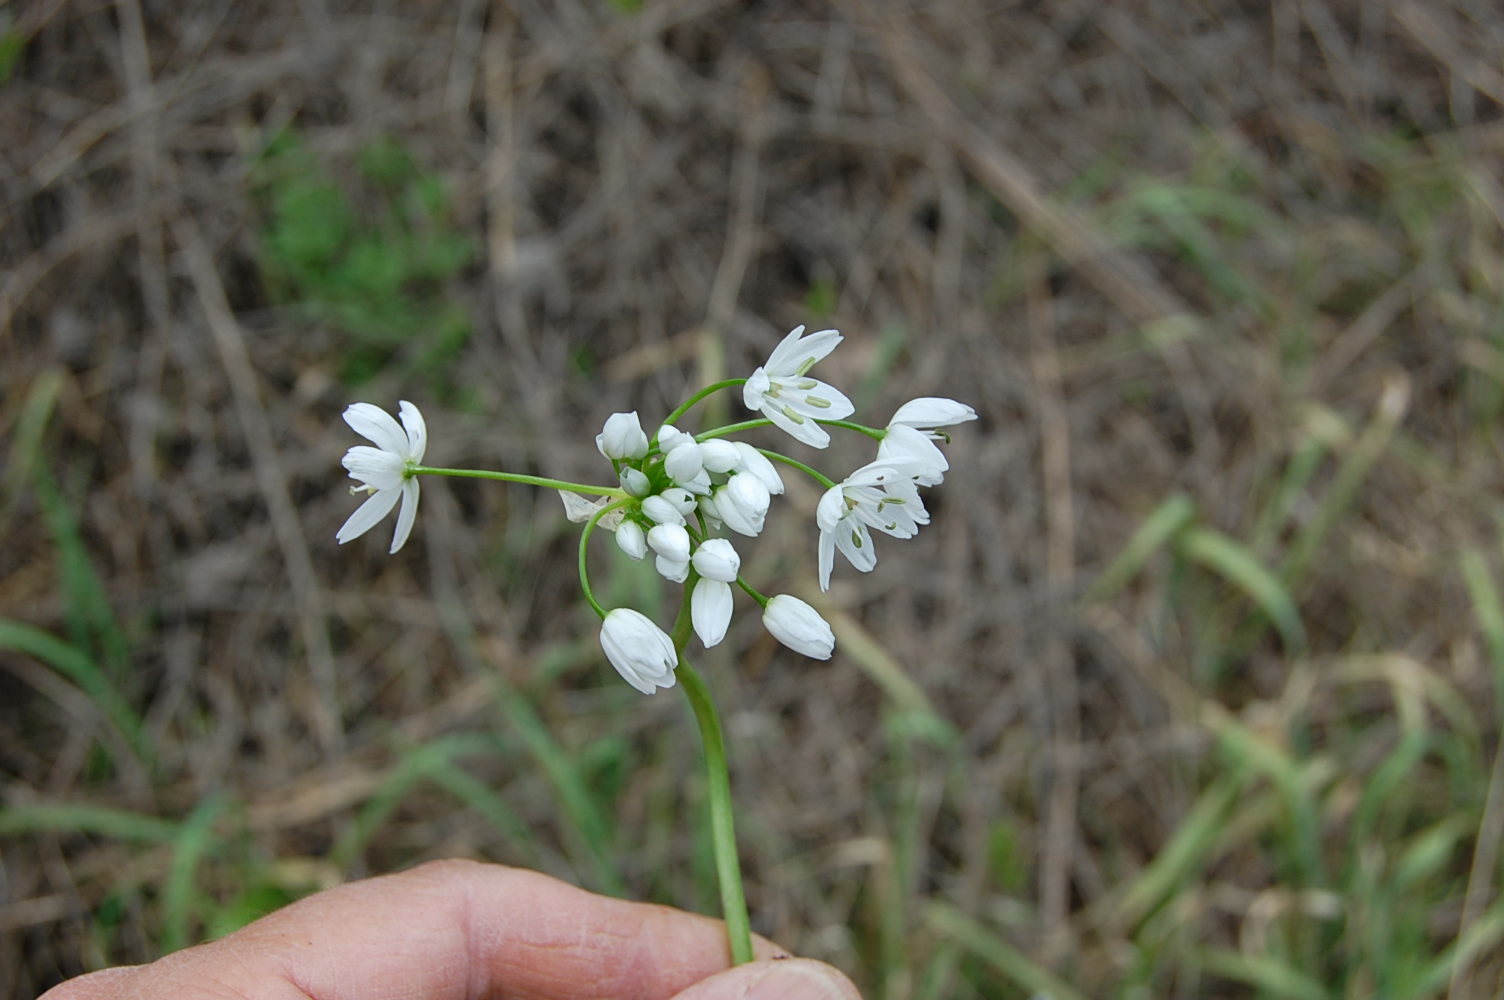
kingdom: Plantae
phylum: Tracheophyta
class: Liliopsida
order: Asparagales
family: Amaryllidaceae
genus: Allium
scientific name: Allium neapolitanum
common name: Neapolitan garlic
